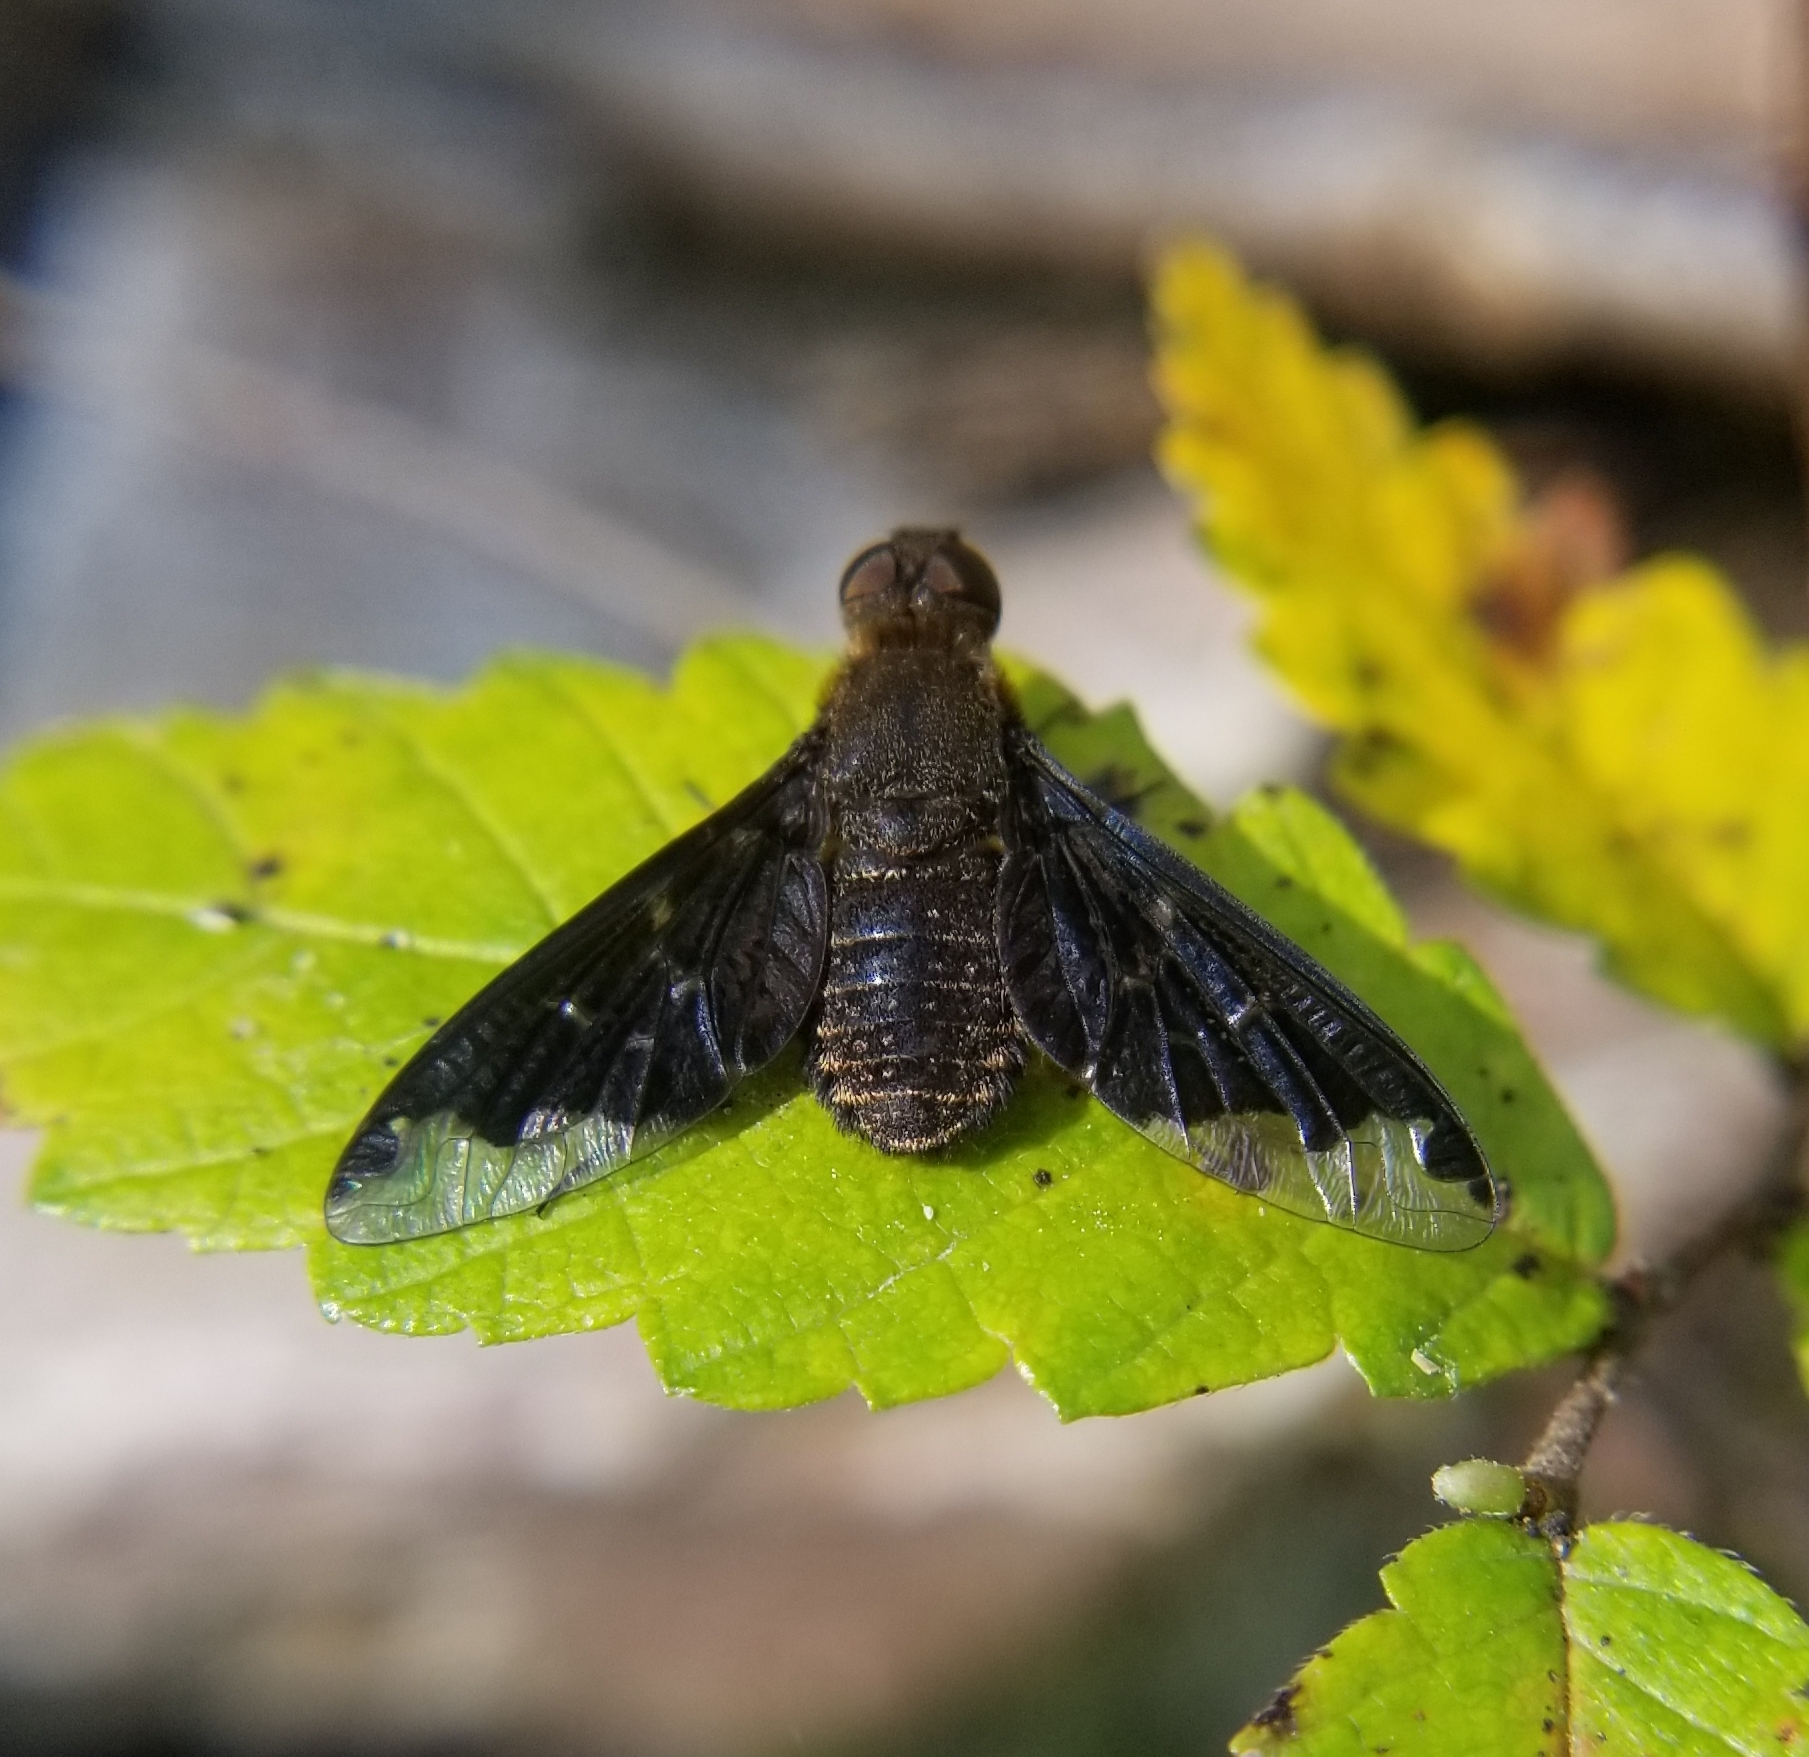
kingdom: Animalia
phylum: Arthropoda
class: Insecta
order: Diptera
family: Bombyliidae
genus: Hemipenthes
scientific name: Hemipenthes sinuosus
